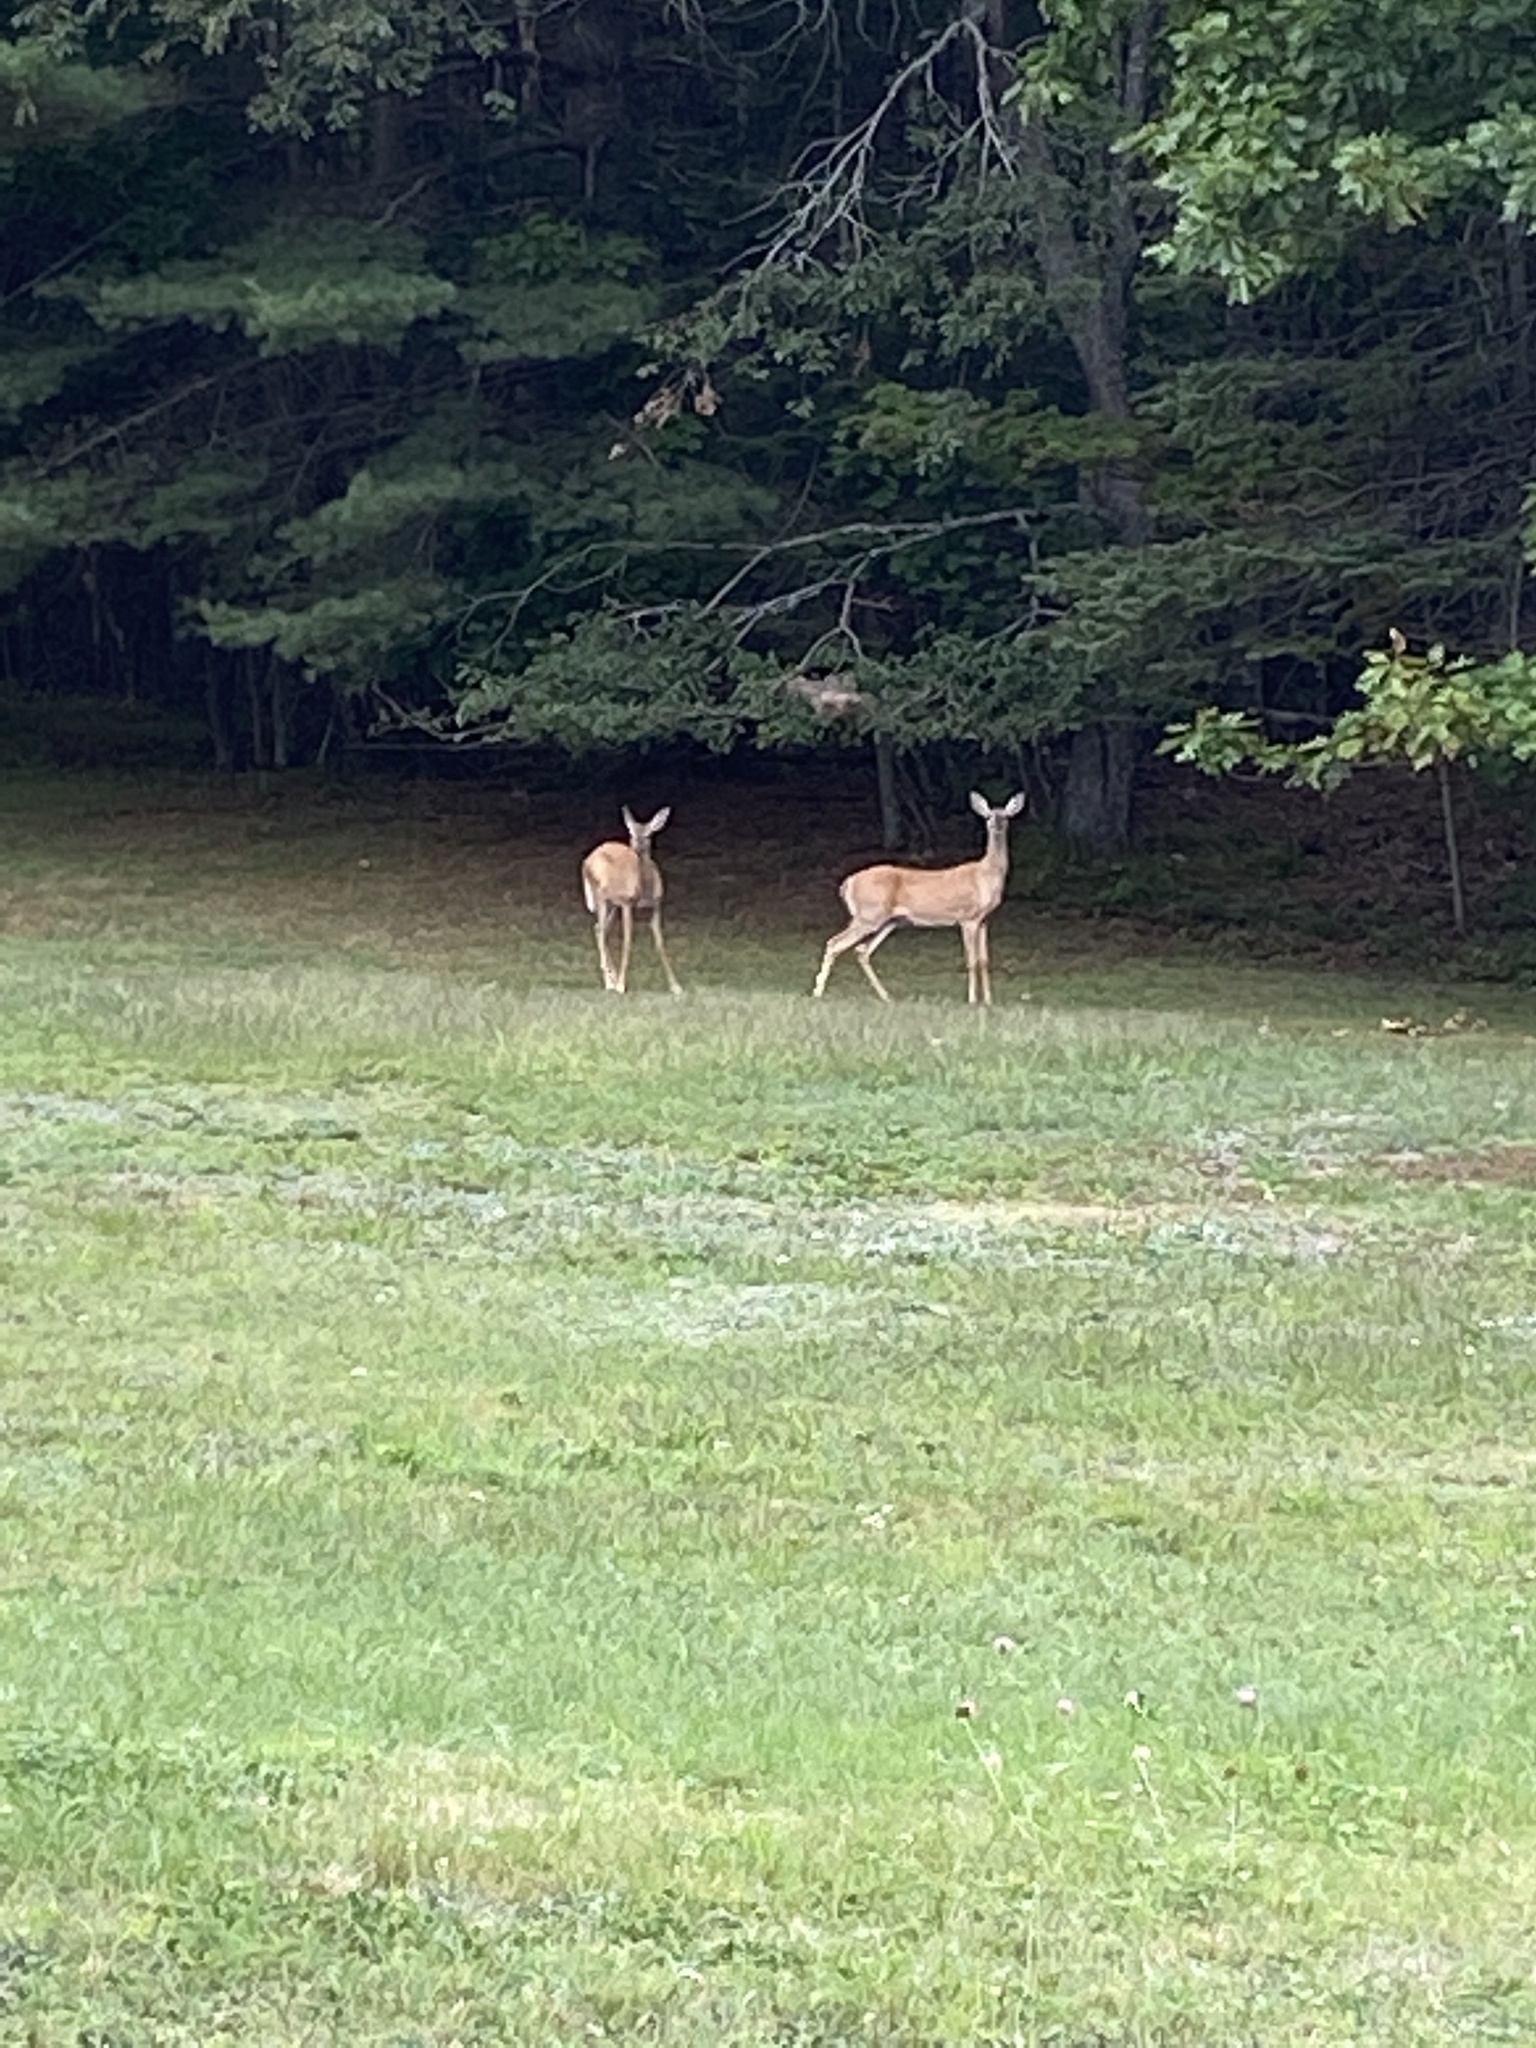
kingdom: Animalia
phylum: Chordata
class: Mammalia
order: Artiodactyla
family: Cervidae
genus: Odocoileus
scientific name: Odocoileus virginianus
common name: White-tailed deer
